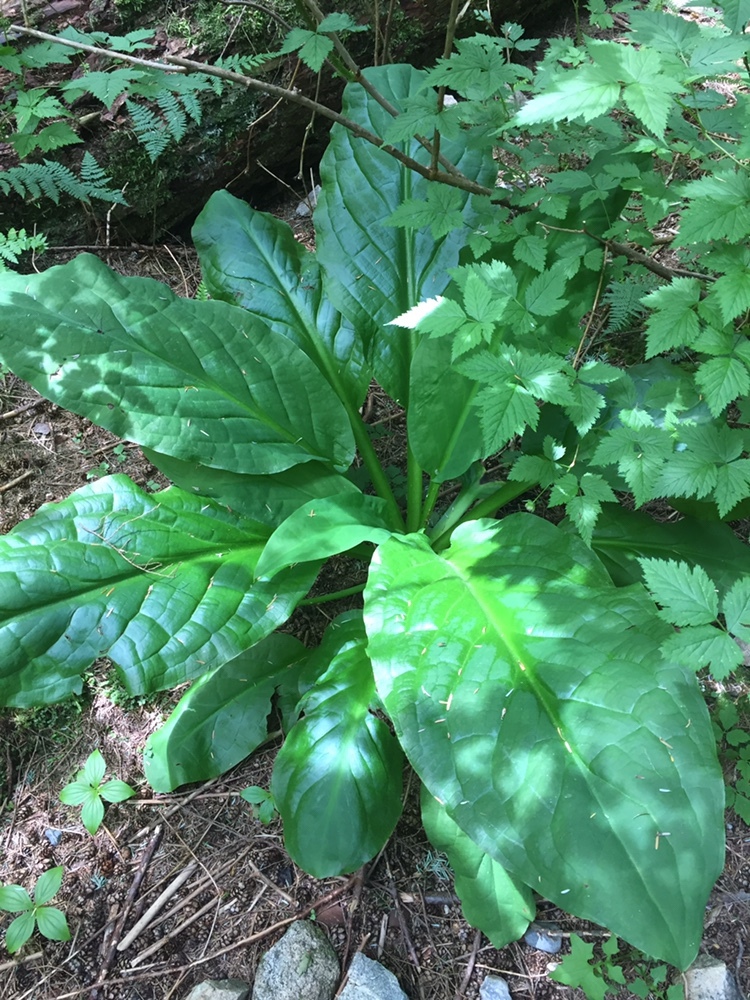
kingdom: Plantae
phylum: Tracheophyta
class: Liliopsida
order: Alismatales
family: Araceae
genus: Lysichiton
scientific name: Lysichiton americanus
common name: American skunk cabbage
